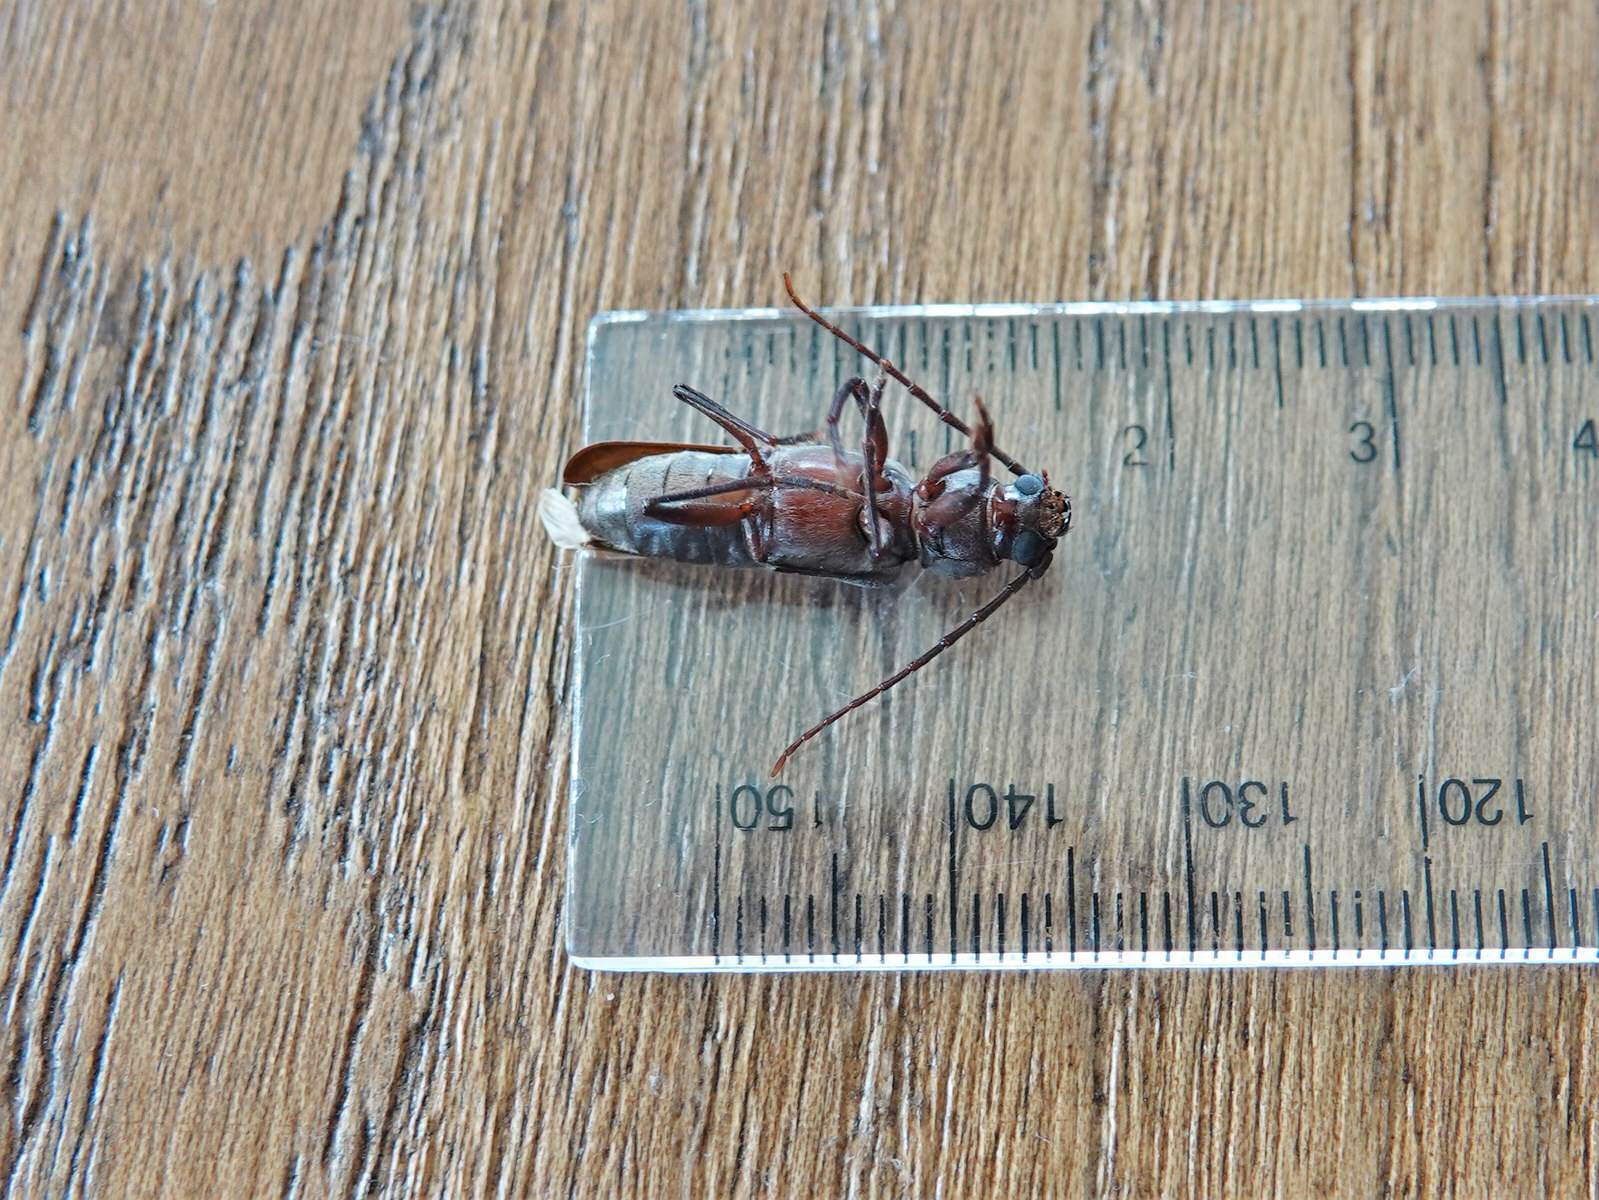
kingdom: Animalia
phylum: Arthropoda
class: Insecta
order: Coleoptera
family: Cerambycidae
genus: Arhopalus
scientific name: Arhopalus ferus
